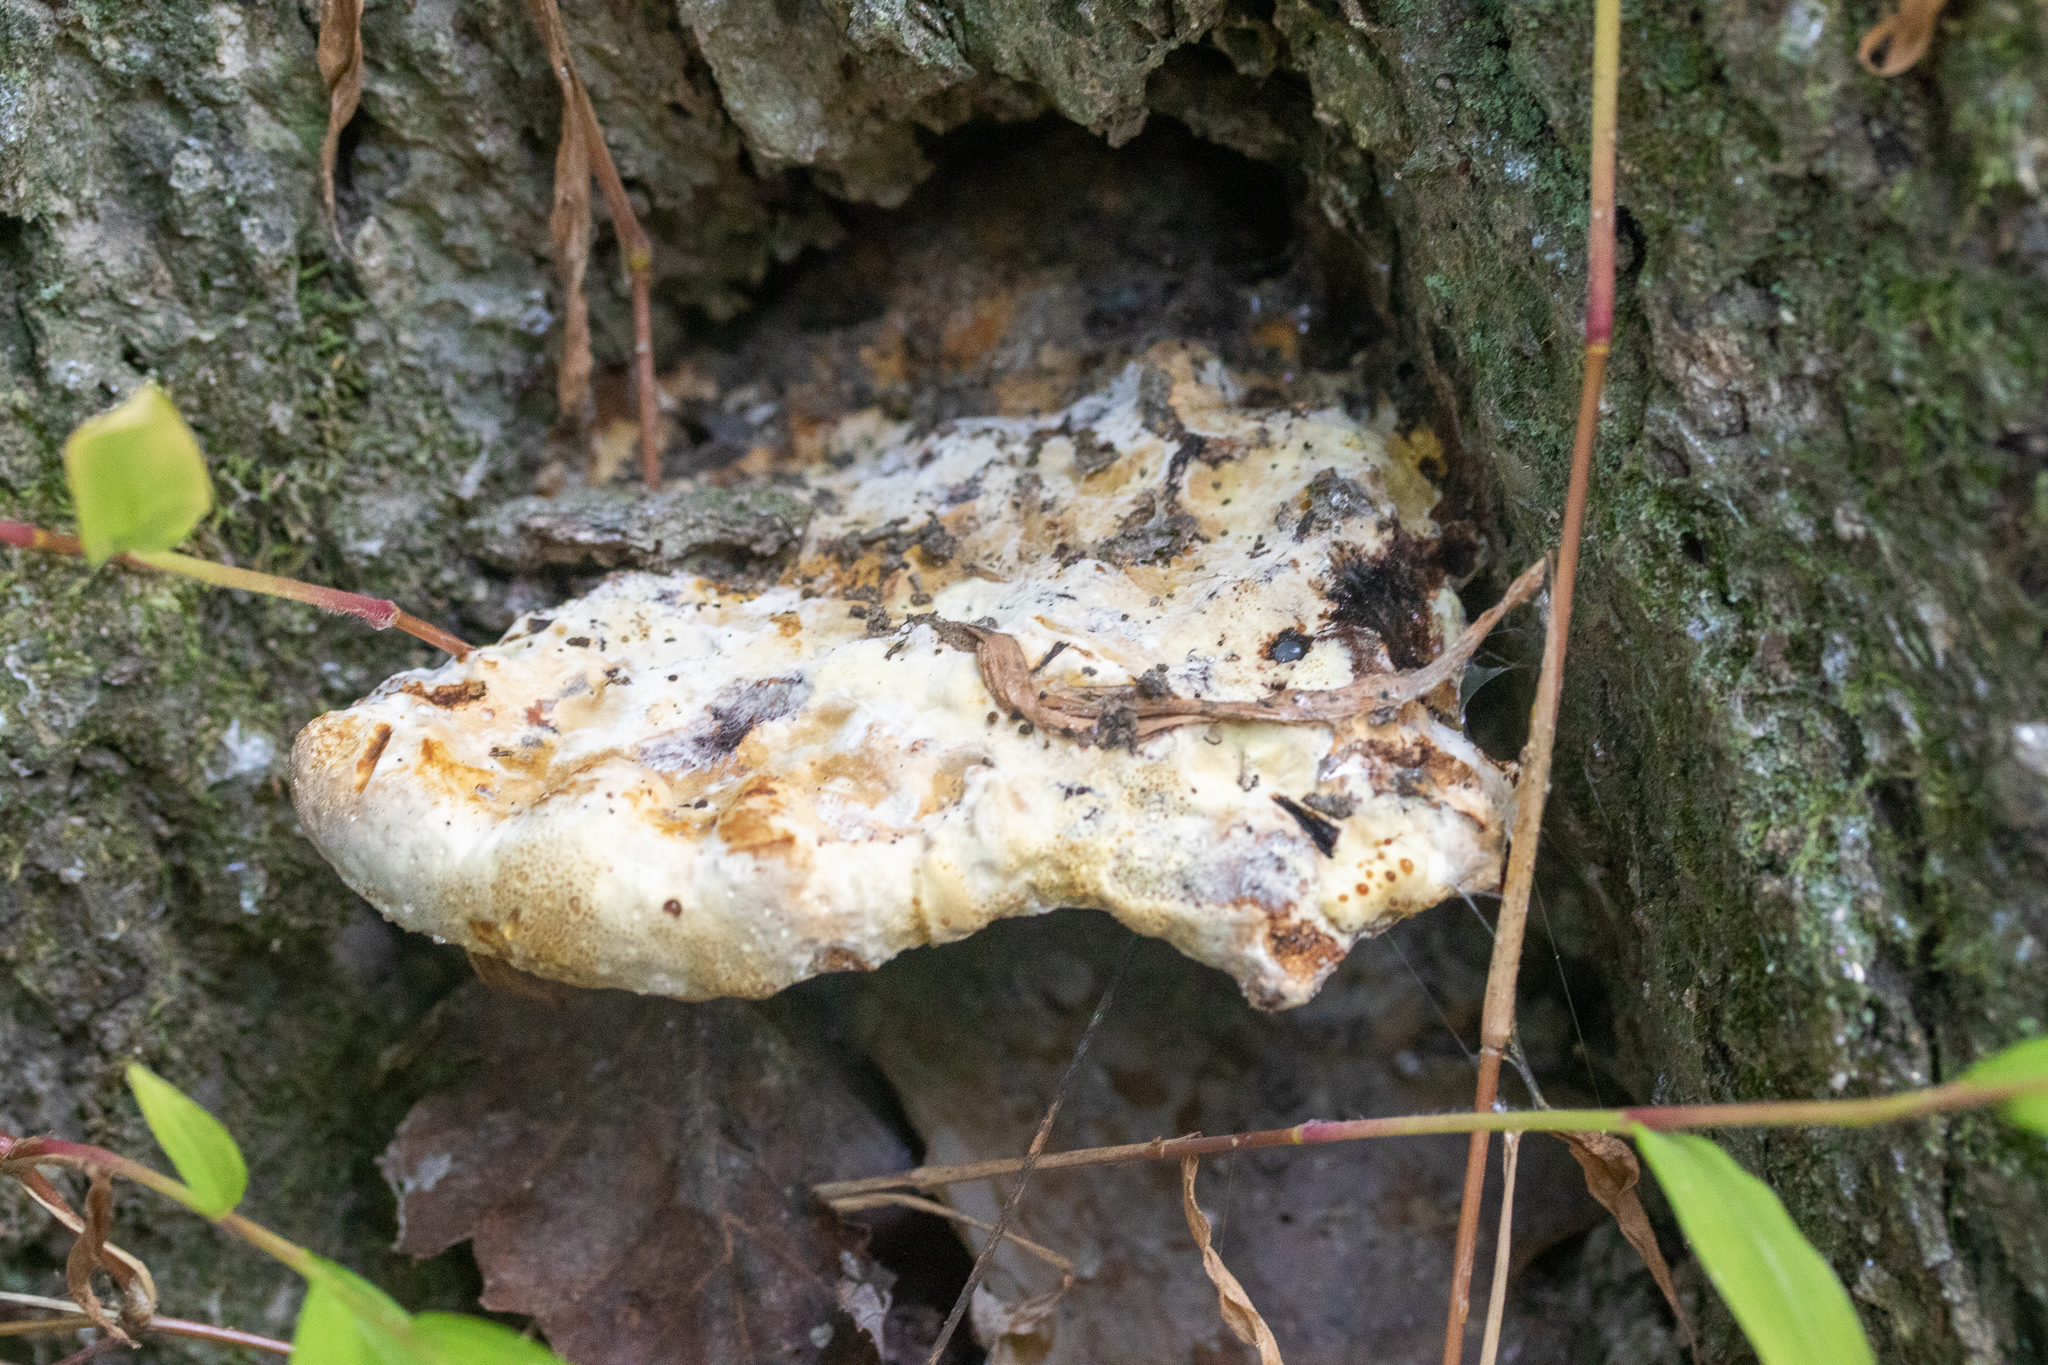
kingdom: Fungi
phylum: Basidiomycota
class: Agaricomycetes
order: Hymenochaetales
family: Hymenochaetaceae
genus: Pseudoinonotus
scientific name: Pseudoinonotus dryadeus
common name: Oak bracket
